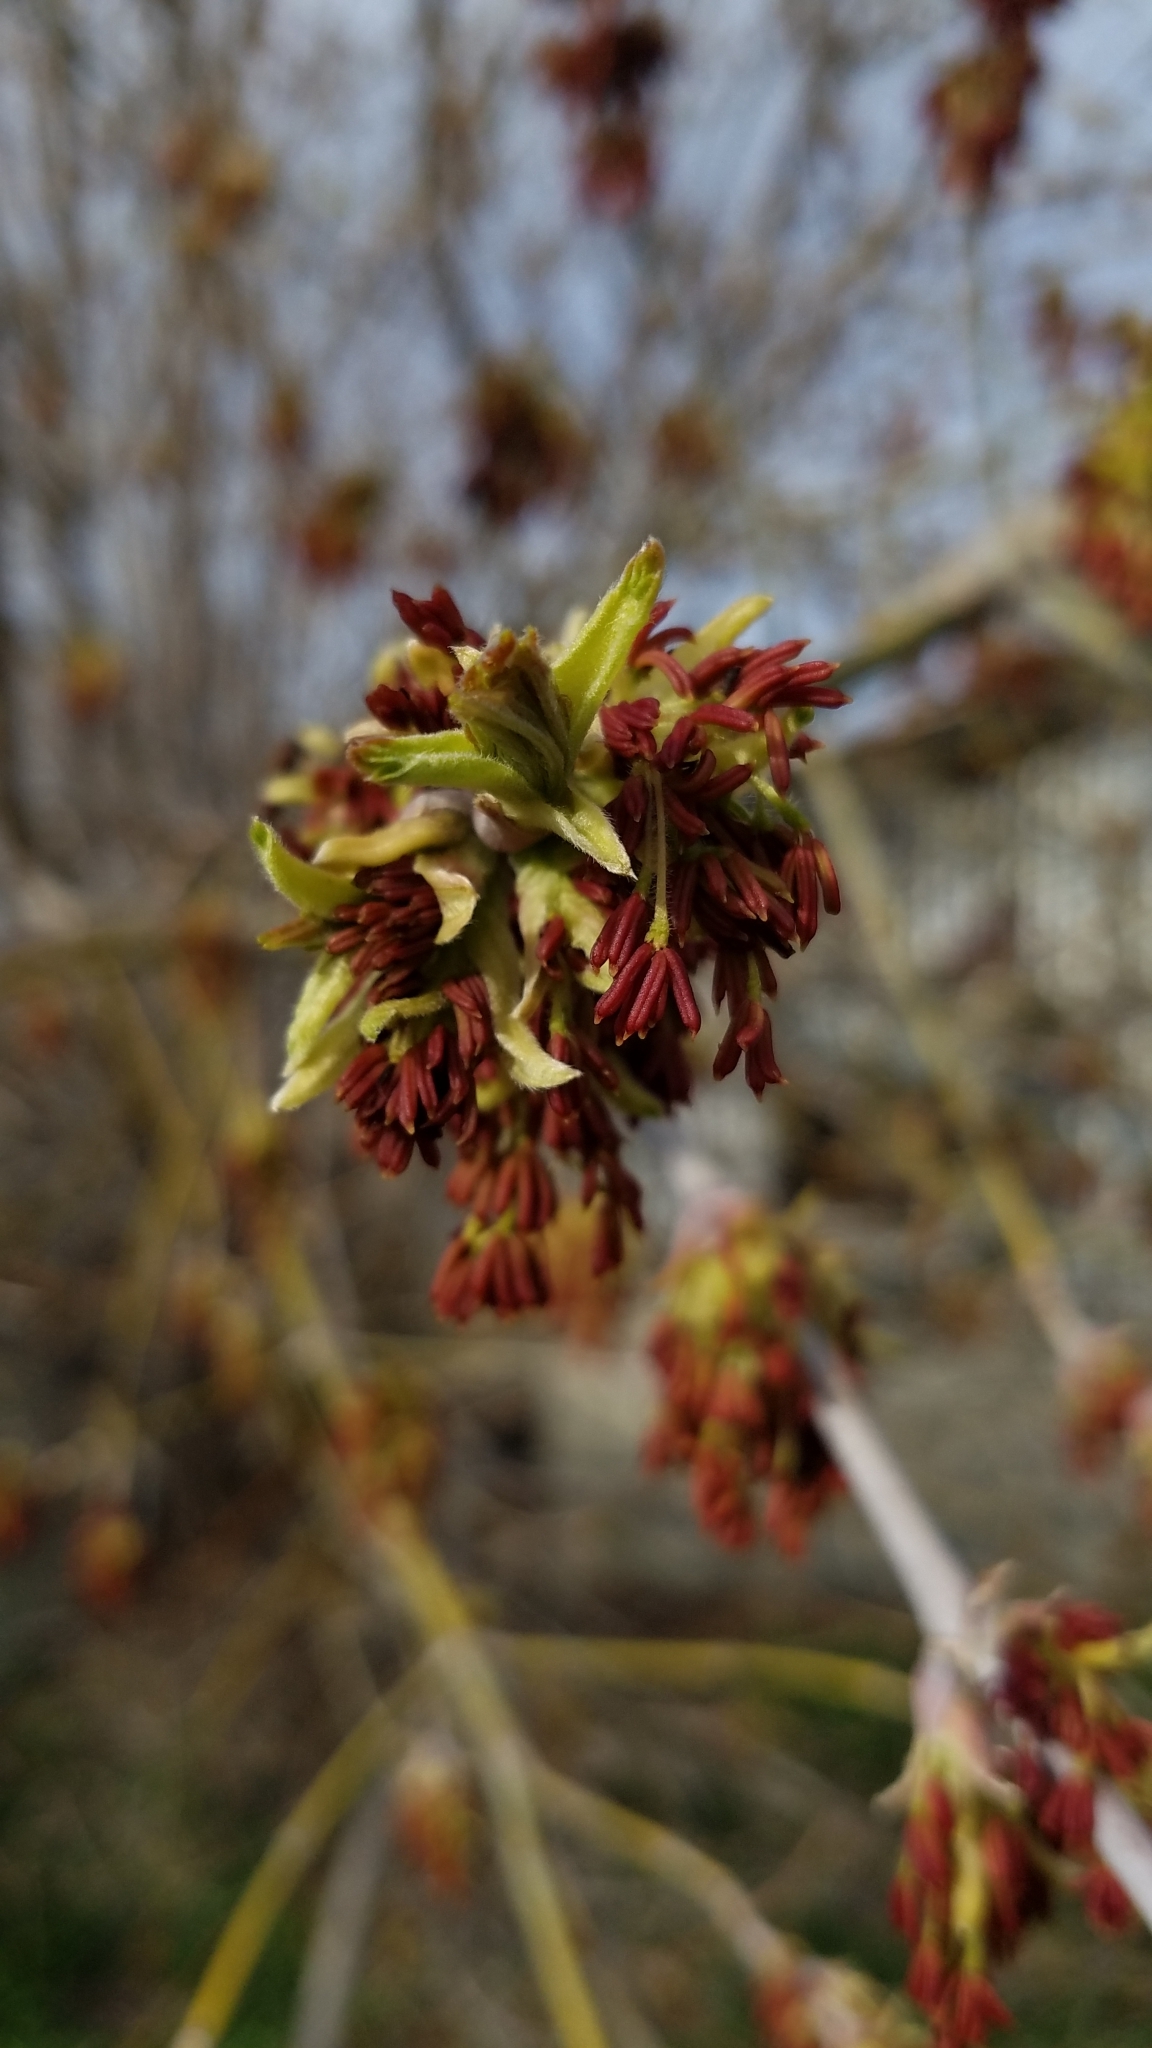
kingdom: Plantae
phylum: Tracheophyta
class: Magnoliopsida
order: Sapindales
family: Sapindaceae
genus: Acer
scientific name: Acer negundo
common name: Ashleaf maple
